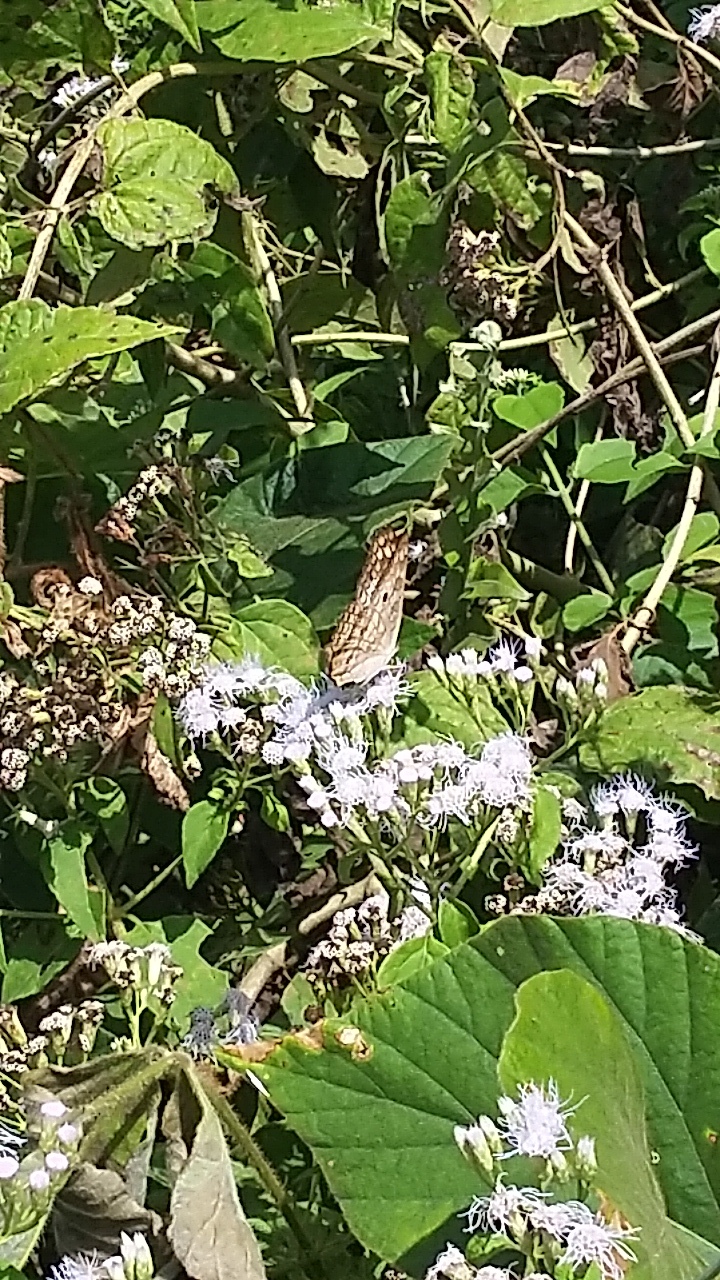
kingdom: Animalia
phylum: Arthropoda
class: Insecta
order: Lepidoptera
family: Nymphalidae
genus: Anartia
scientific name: Anartia jatrophae
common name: White peacock
